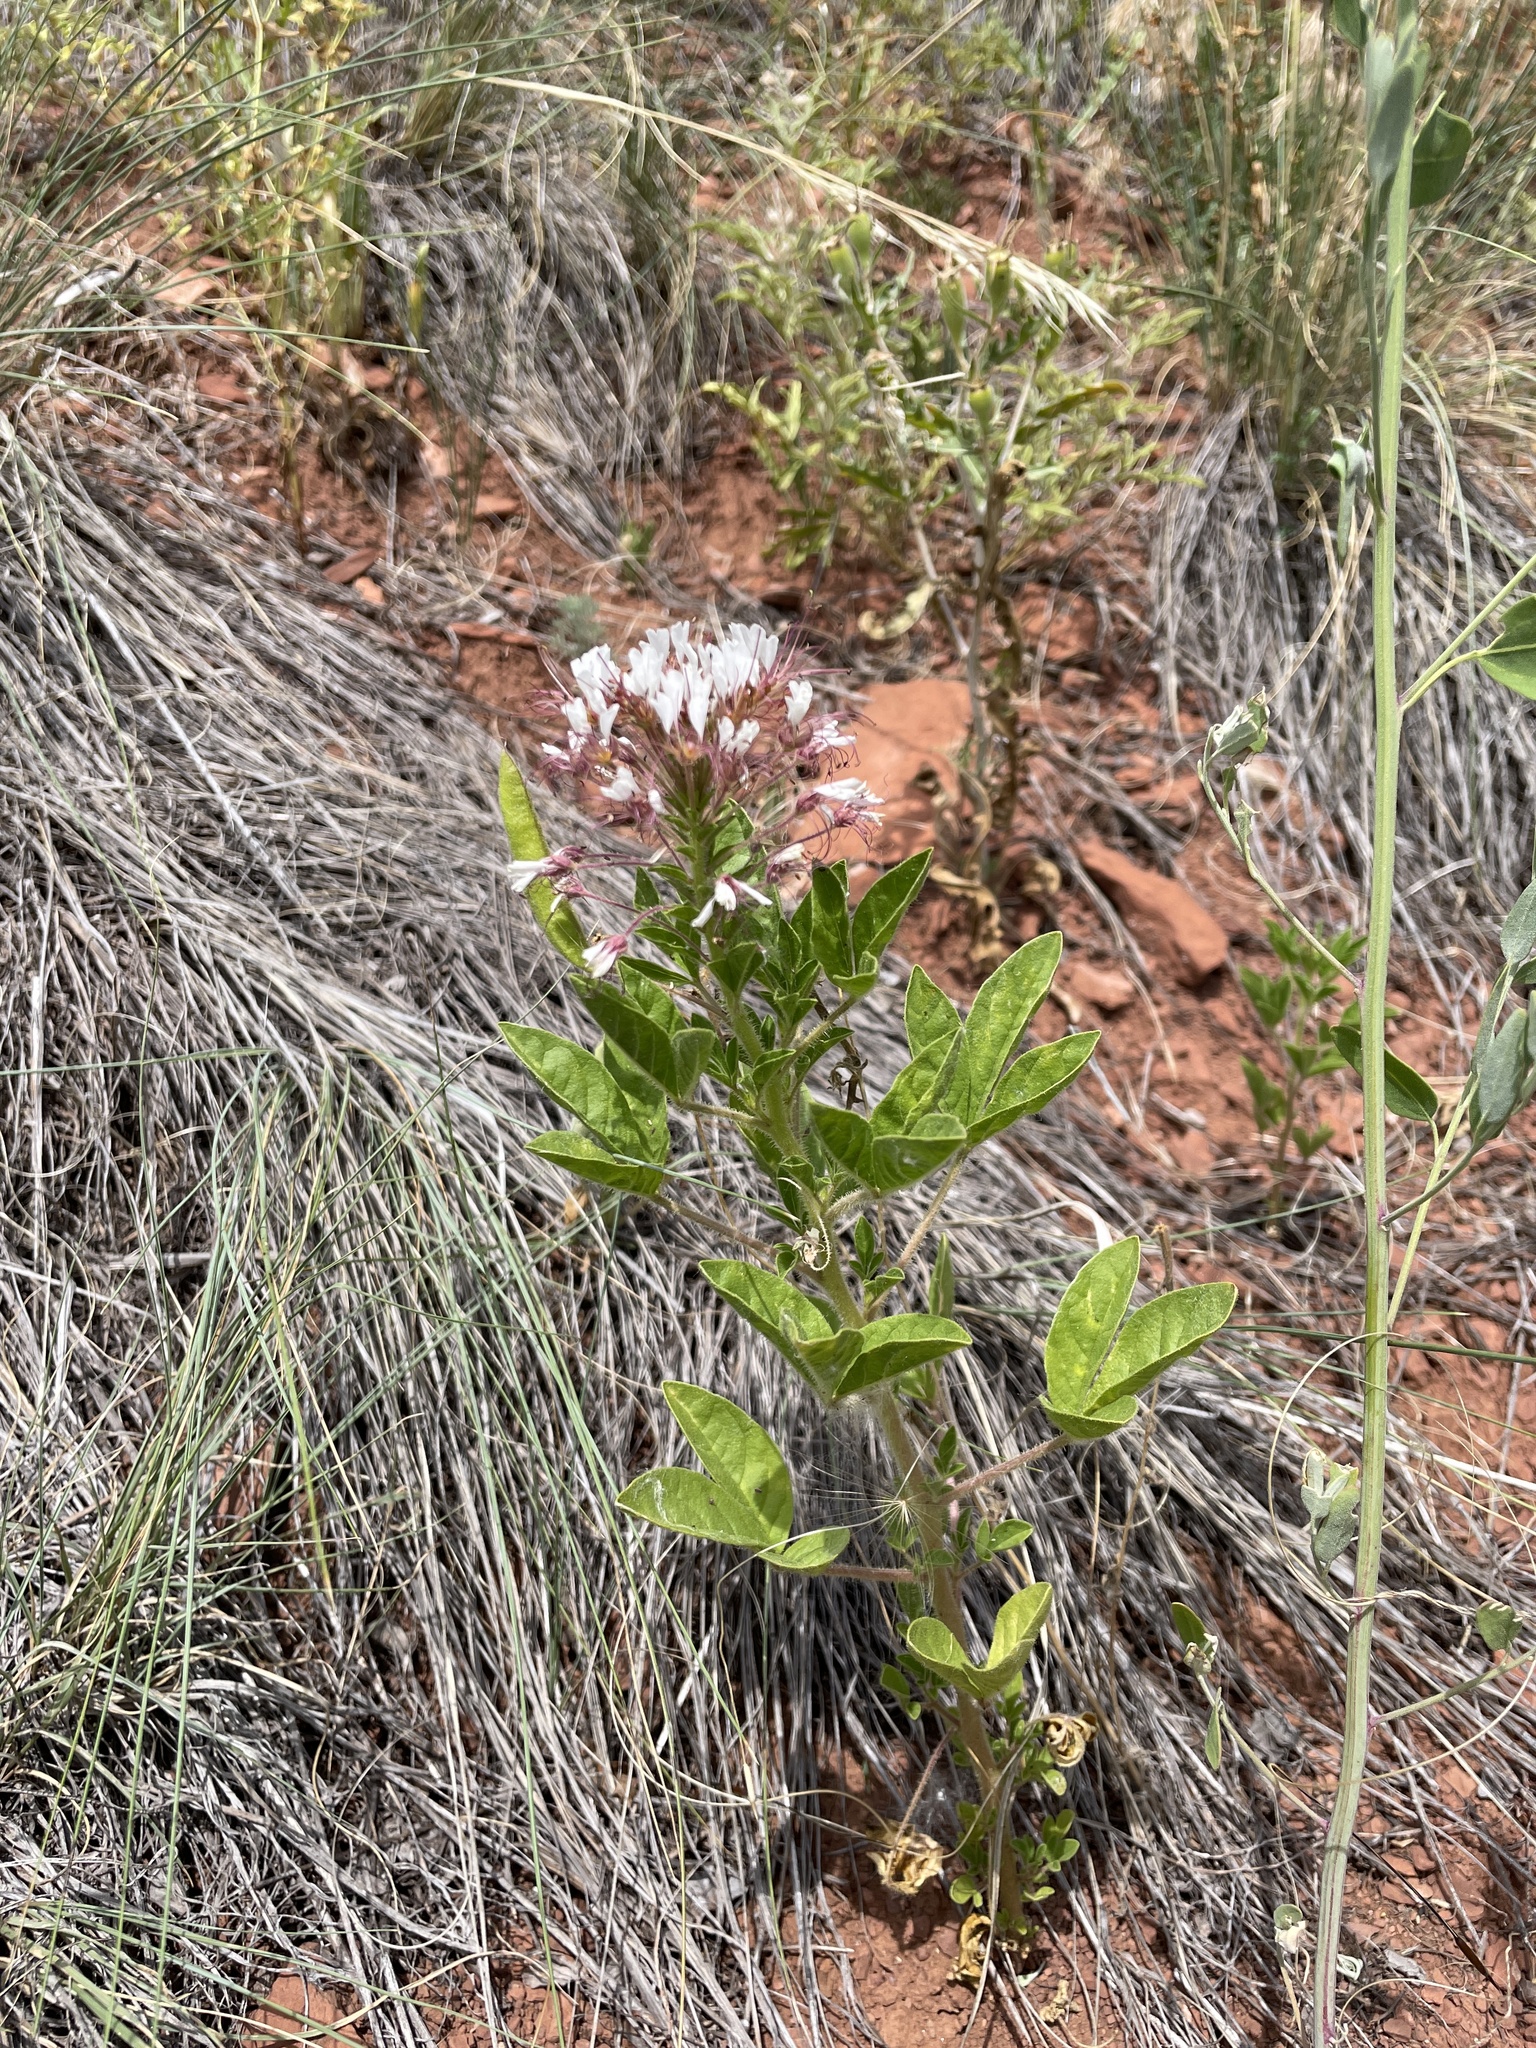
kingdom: Plantae
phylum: Tracheophyta
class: Magnoliopsida
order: Brassicales
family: Cleomaceae
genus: Polanisia
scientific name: Polanisia dodecandra
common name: Clammyweed
